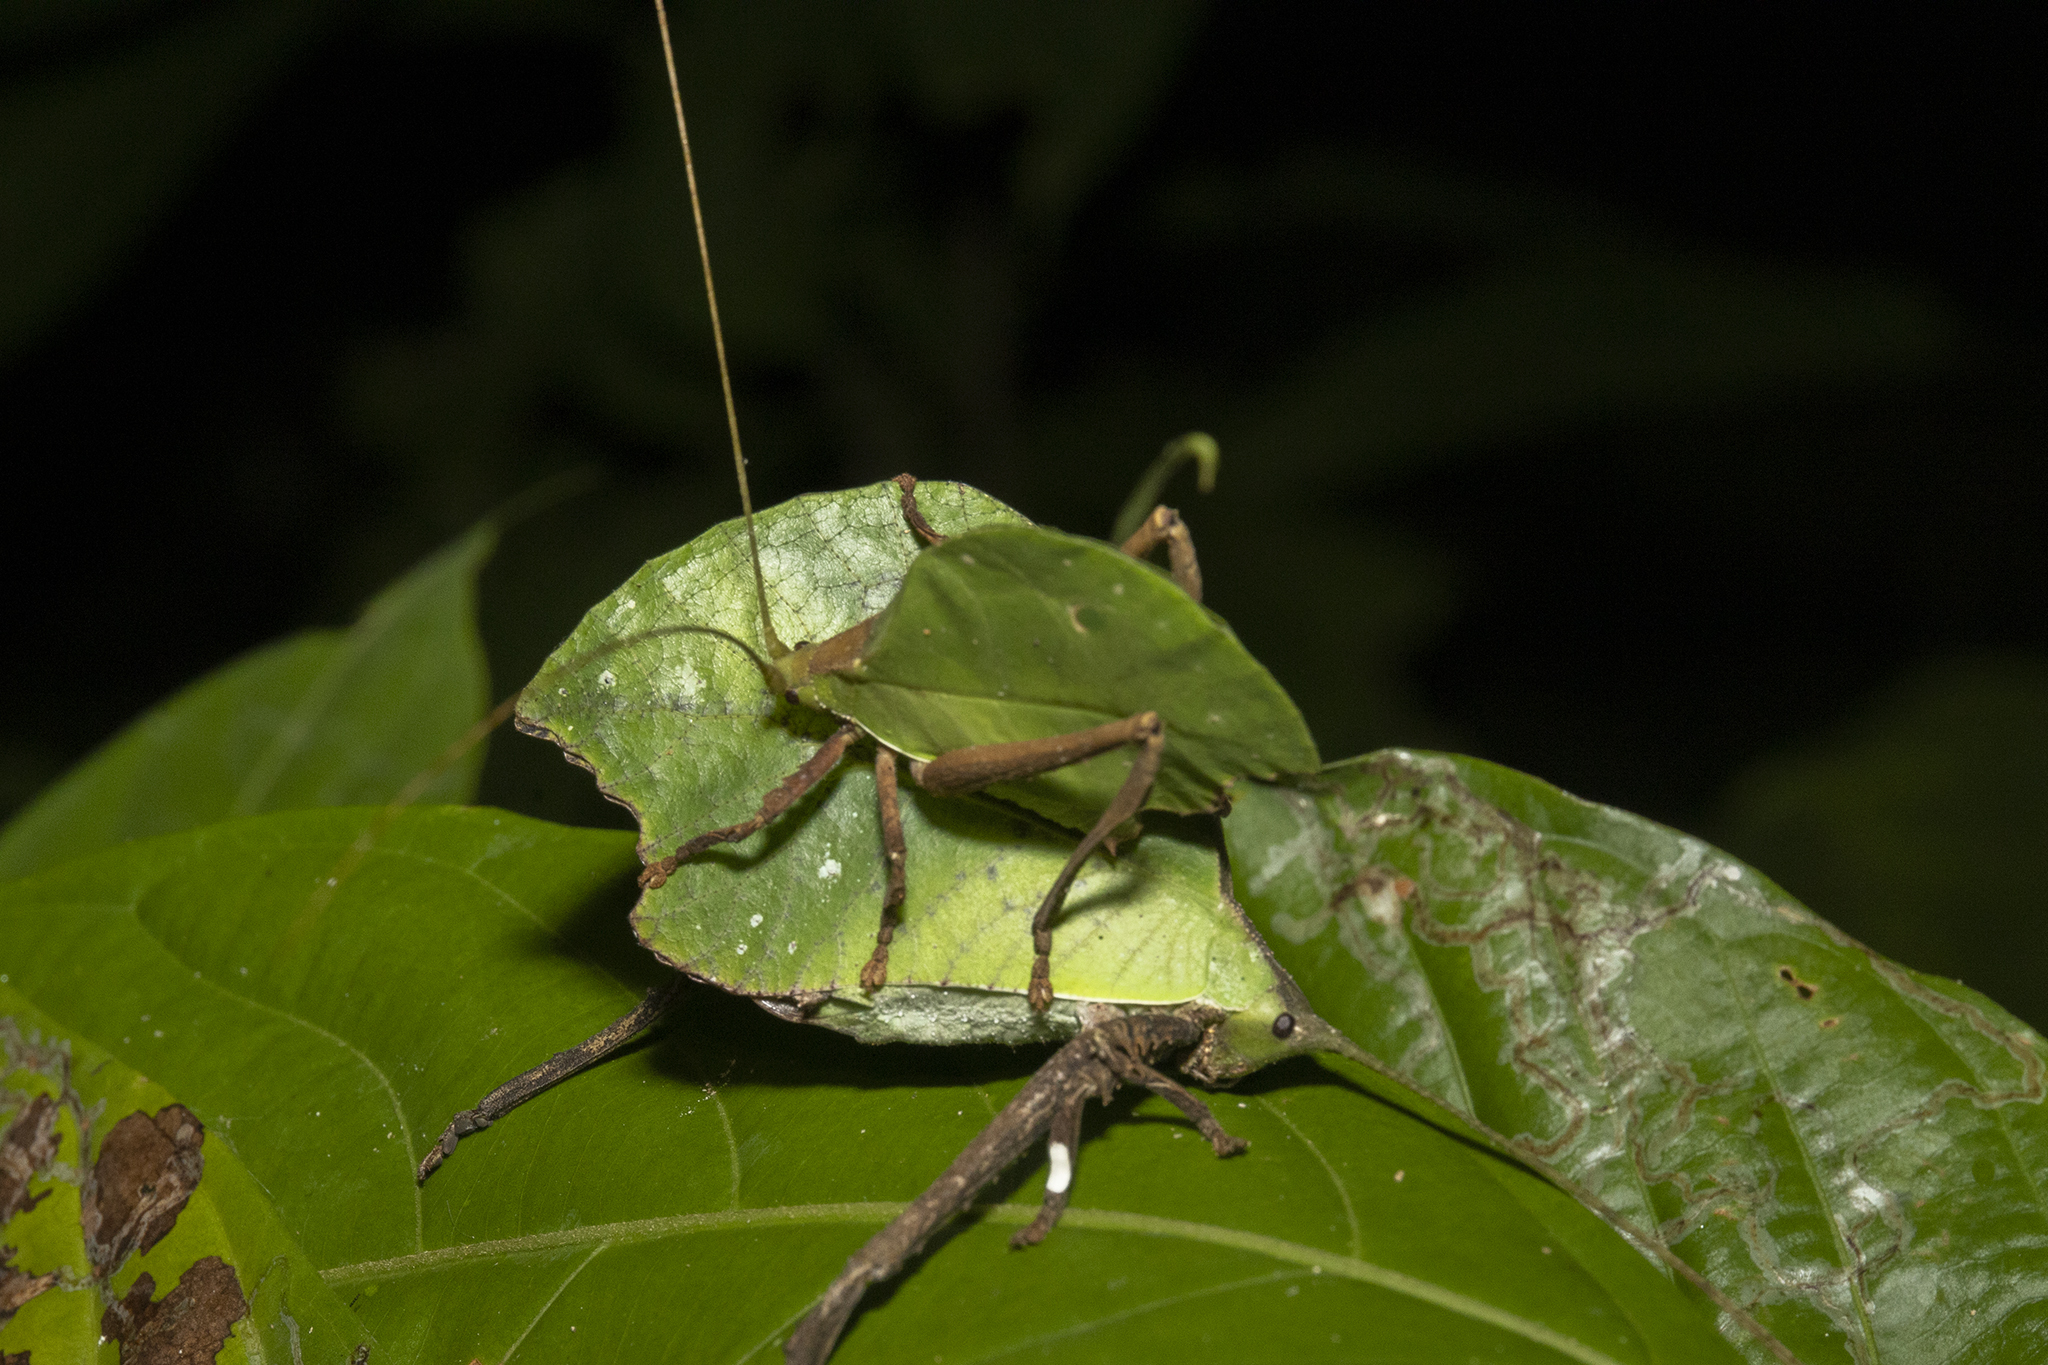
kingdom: Animalia
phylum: Arthropoda
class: Insecta
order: Orthoptera
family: Tettigoniidae
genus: Typophyllum
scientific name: Typophyllum mortuifolium
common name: Common little walking leaf
